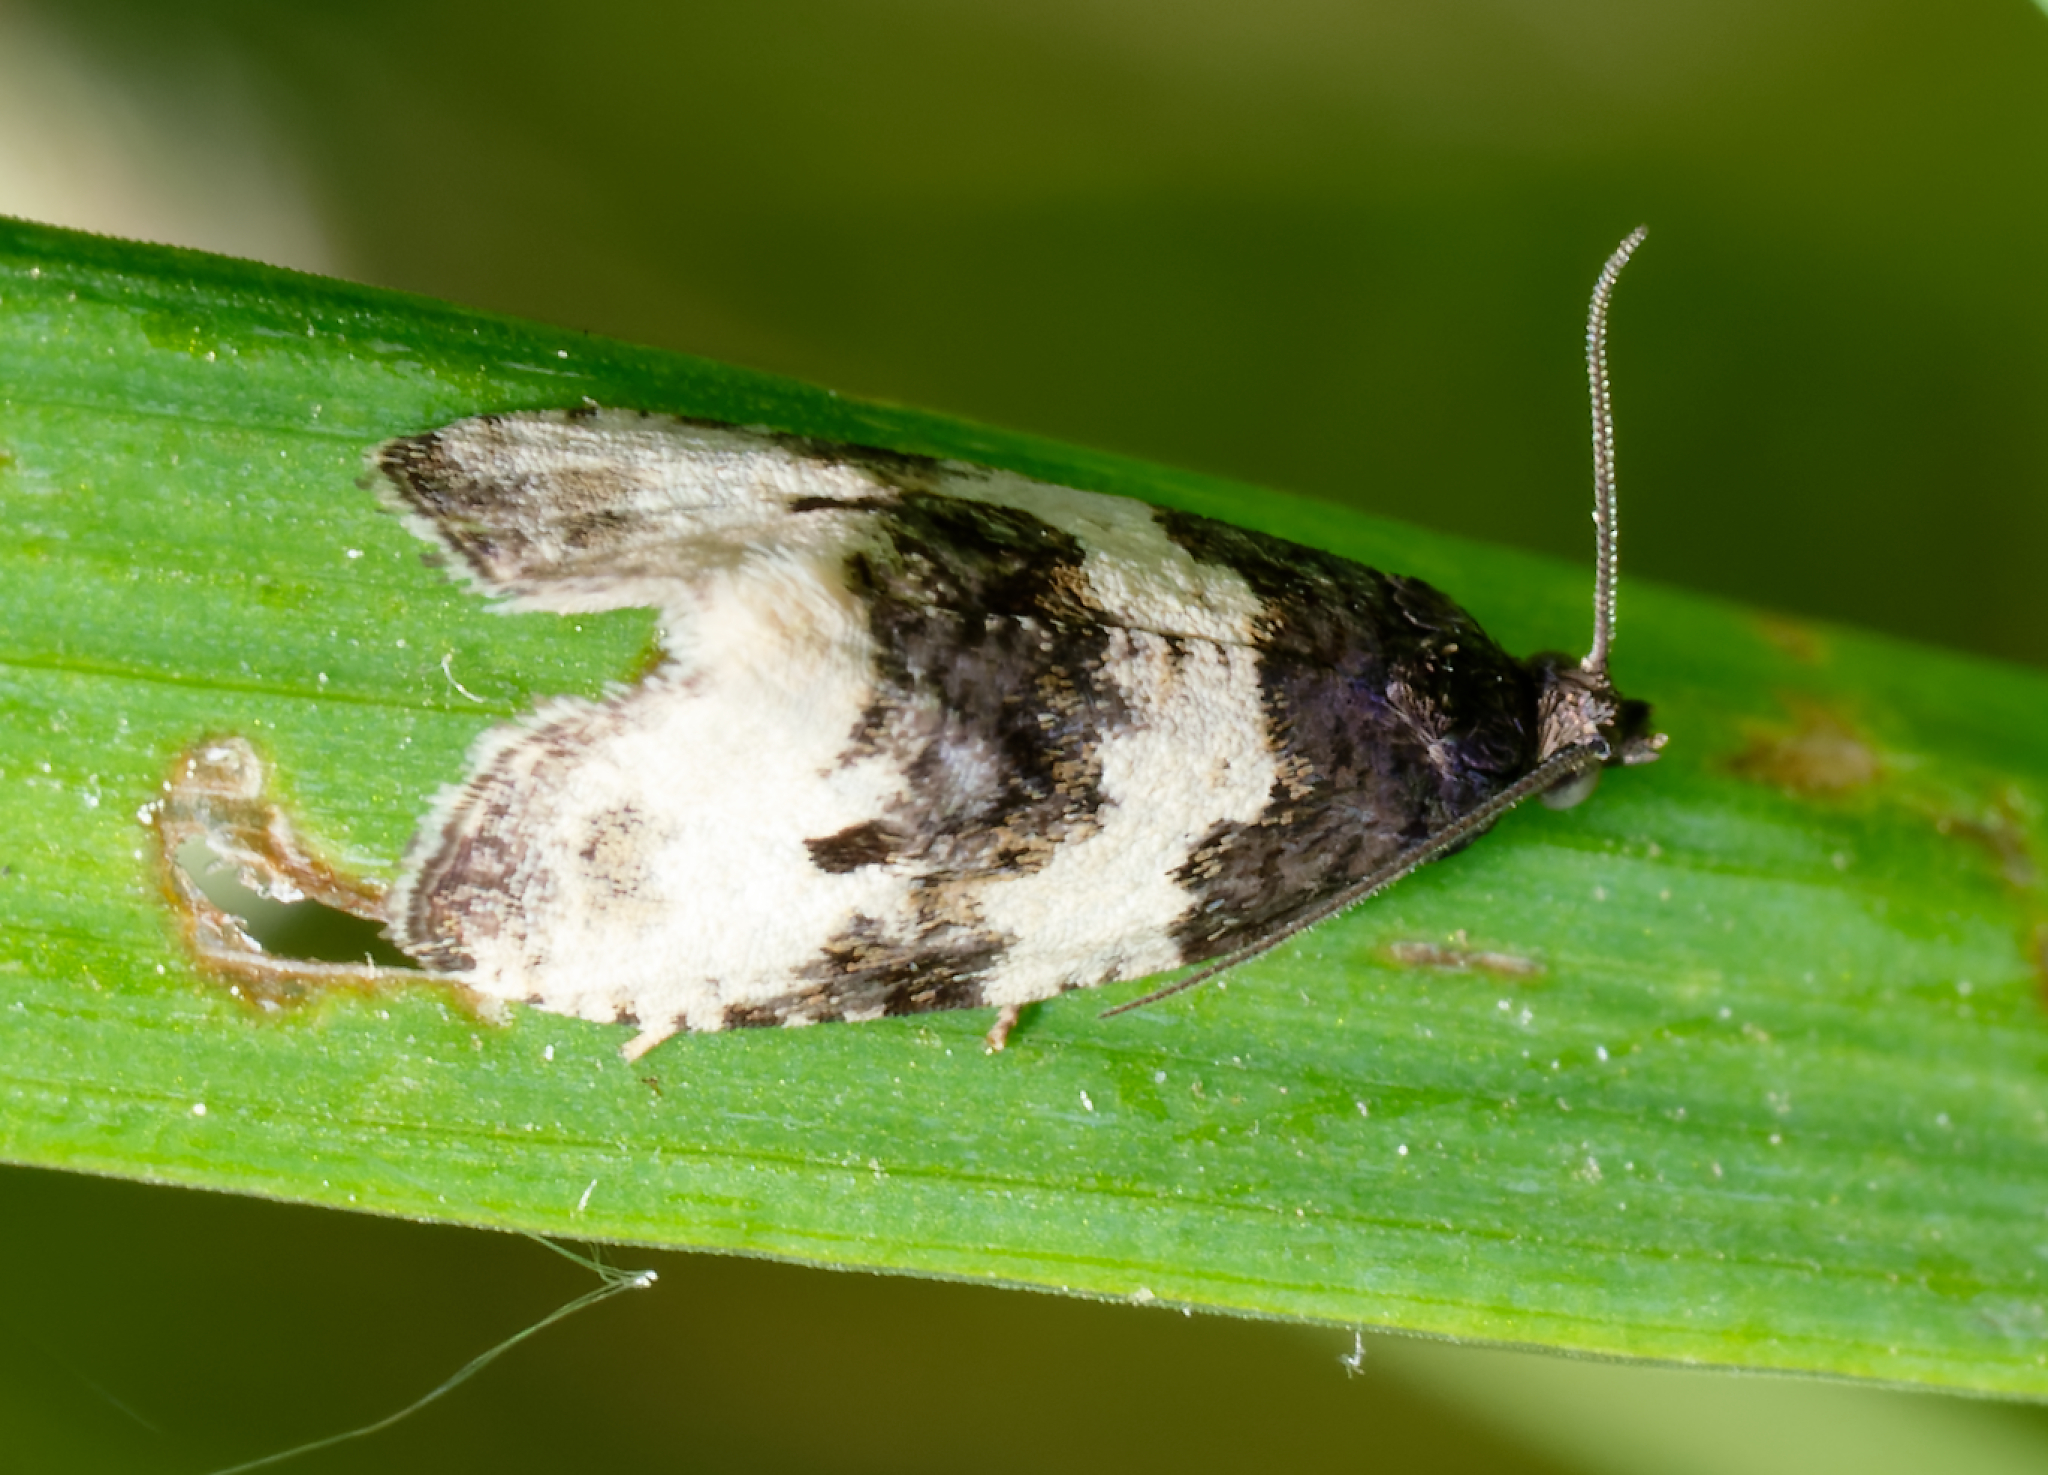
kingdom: Animalia
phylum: Arthropoda
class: Insecta
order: Lepidoptera
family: Tortricidae
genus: Olethreutes
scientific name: Olethreutes bipartitana
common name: Divided olethreutes moth
